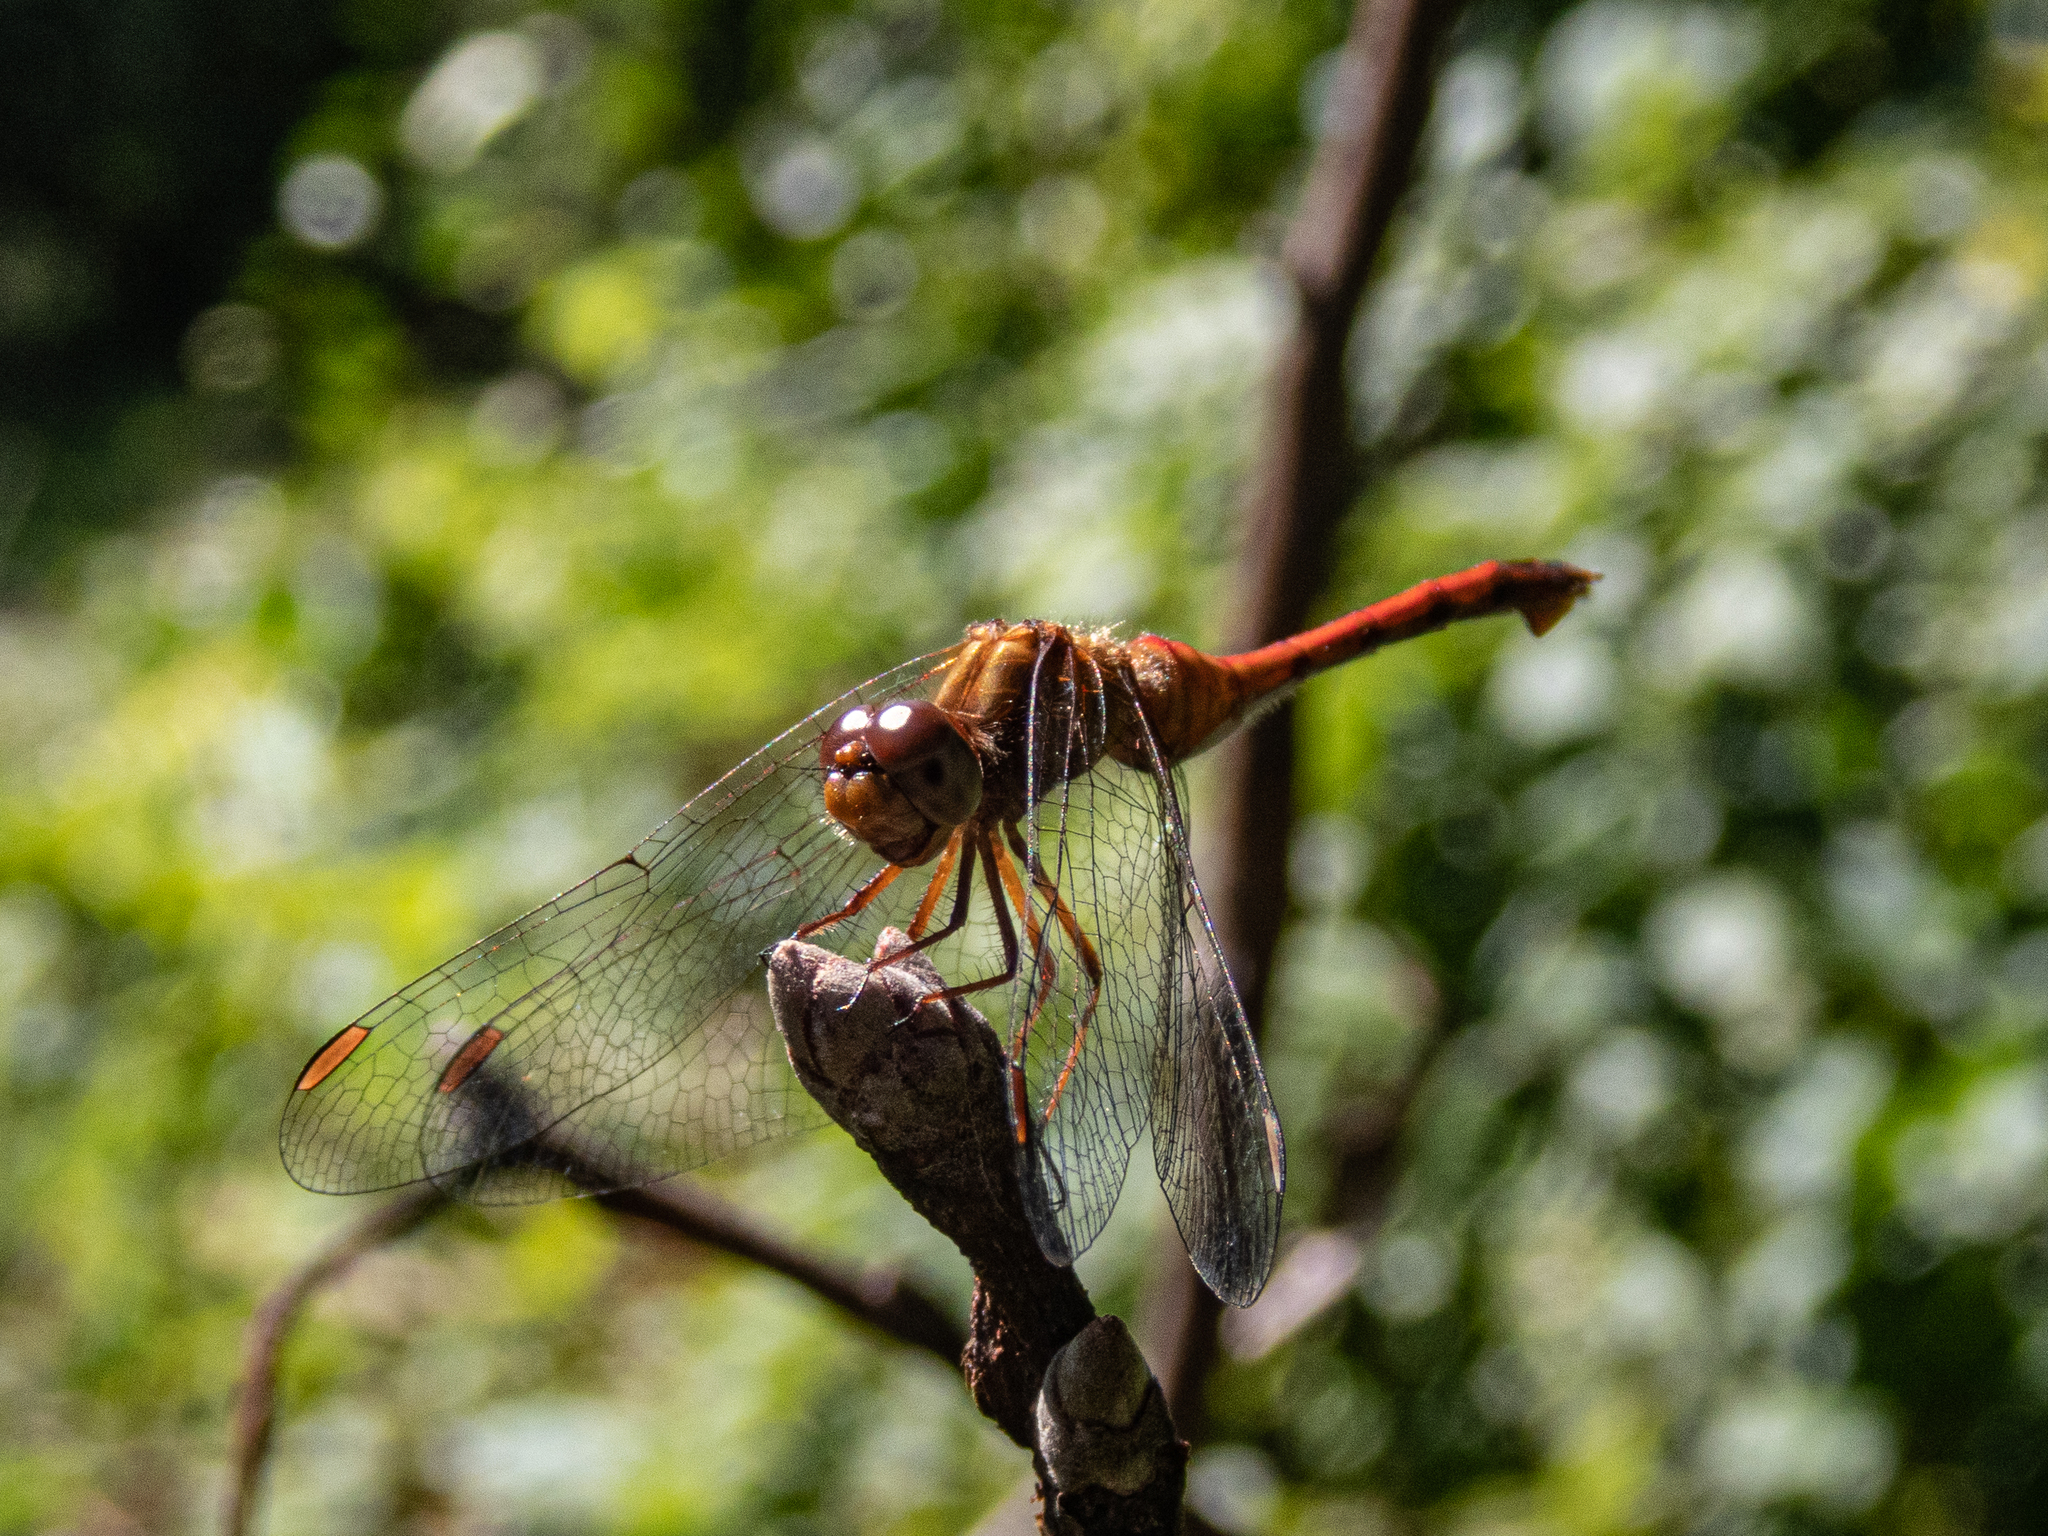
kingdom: Animalia
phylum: Arthropoda
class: Insecta
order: Odonata
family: Libellulidae
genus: Sympetrum
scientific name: Sympetrum vicinum
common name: Autumn meadowhawk
